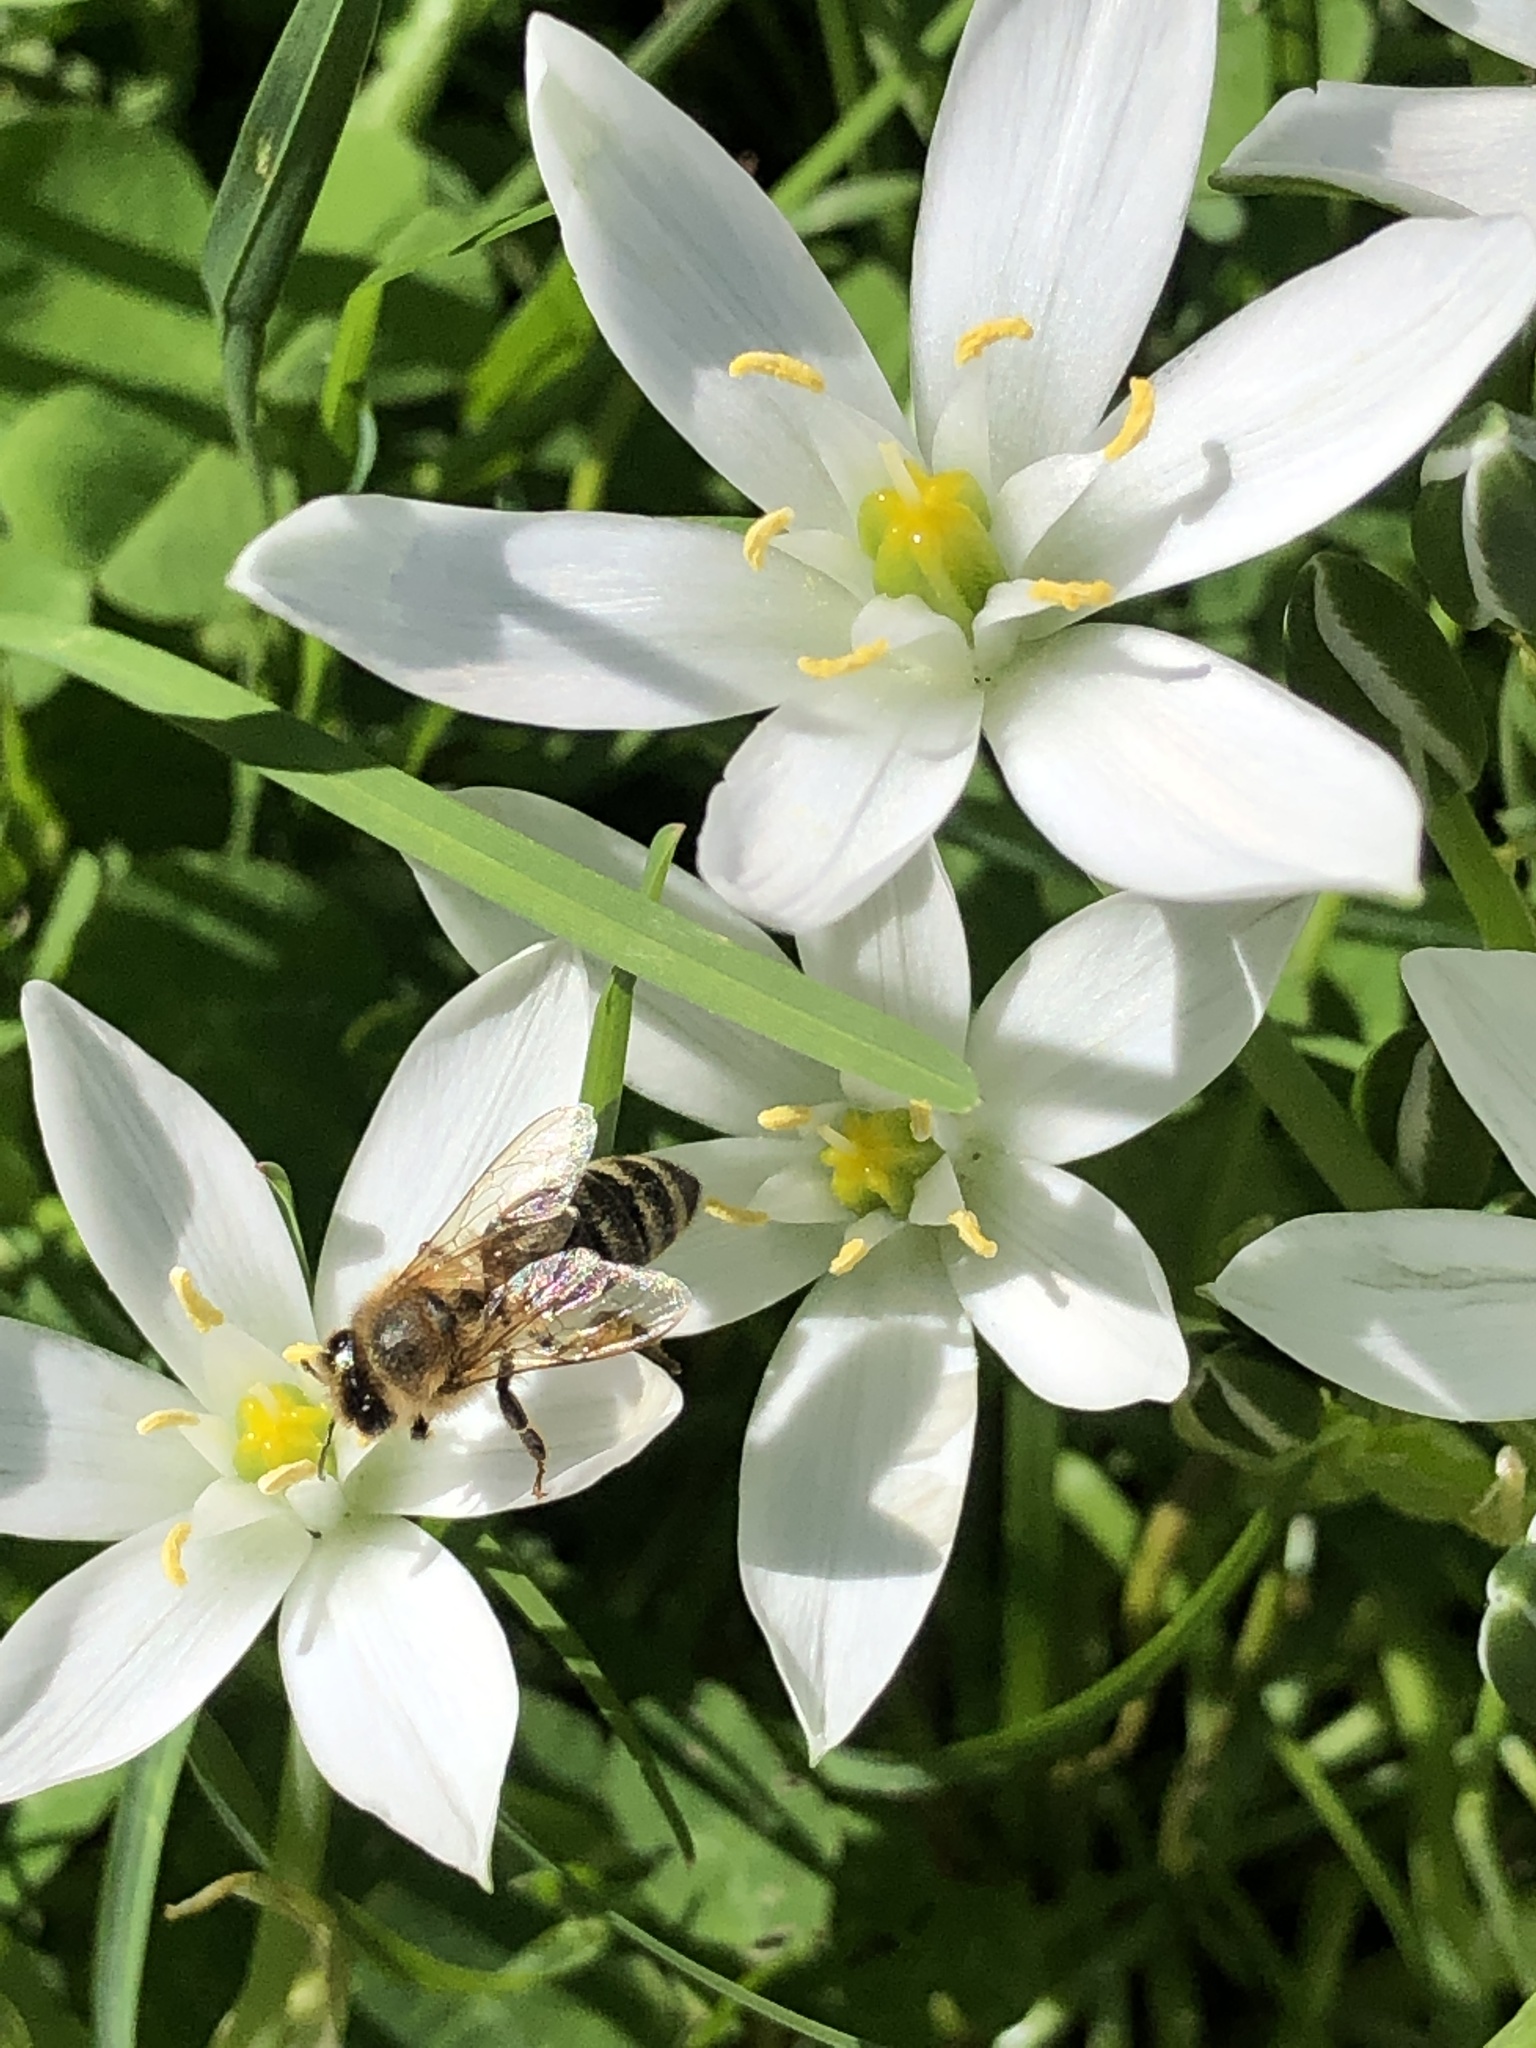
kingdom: Animalia
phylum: Arthropoda
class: Insecta
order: Hymenoptera
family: Apidae
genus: Apis
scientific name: Apis mellifera
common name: Honey bee
